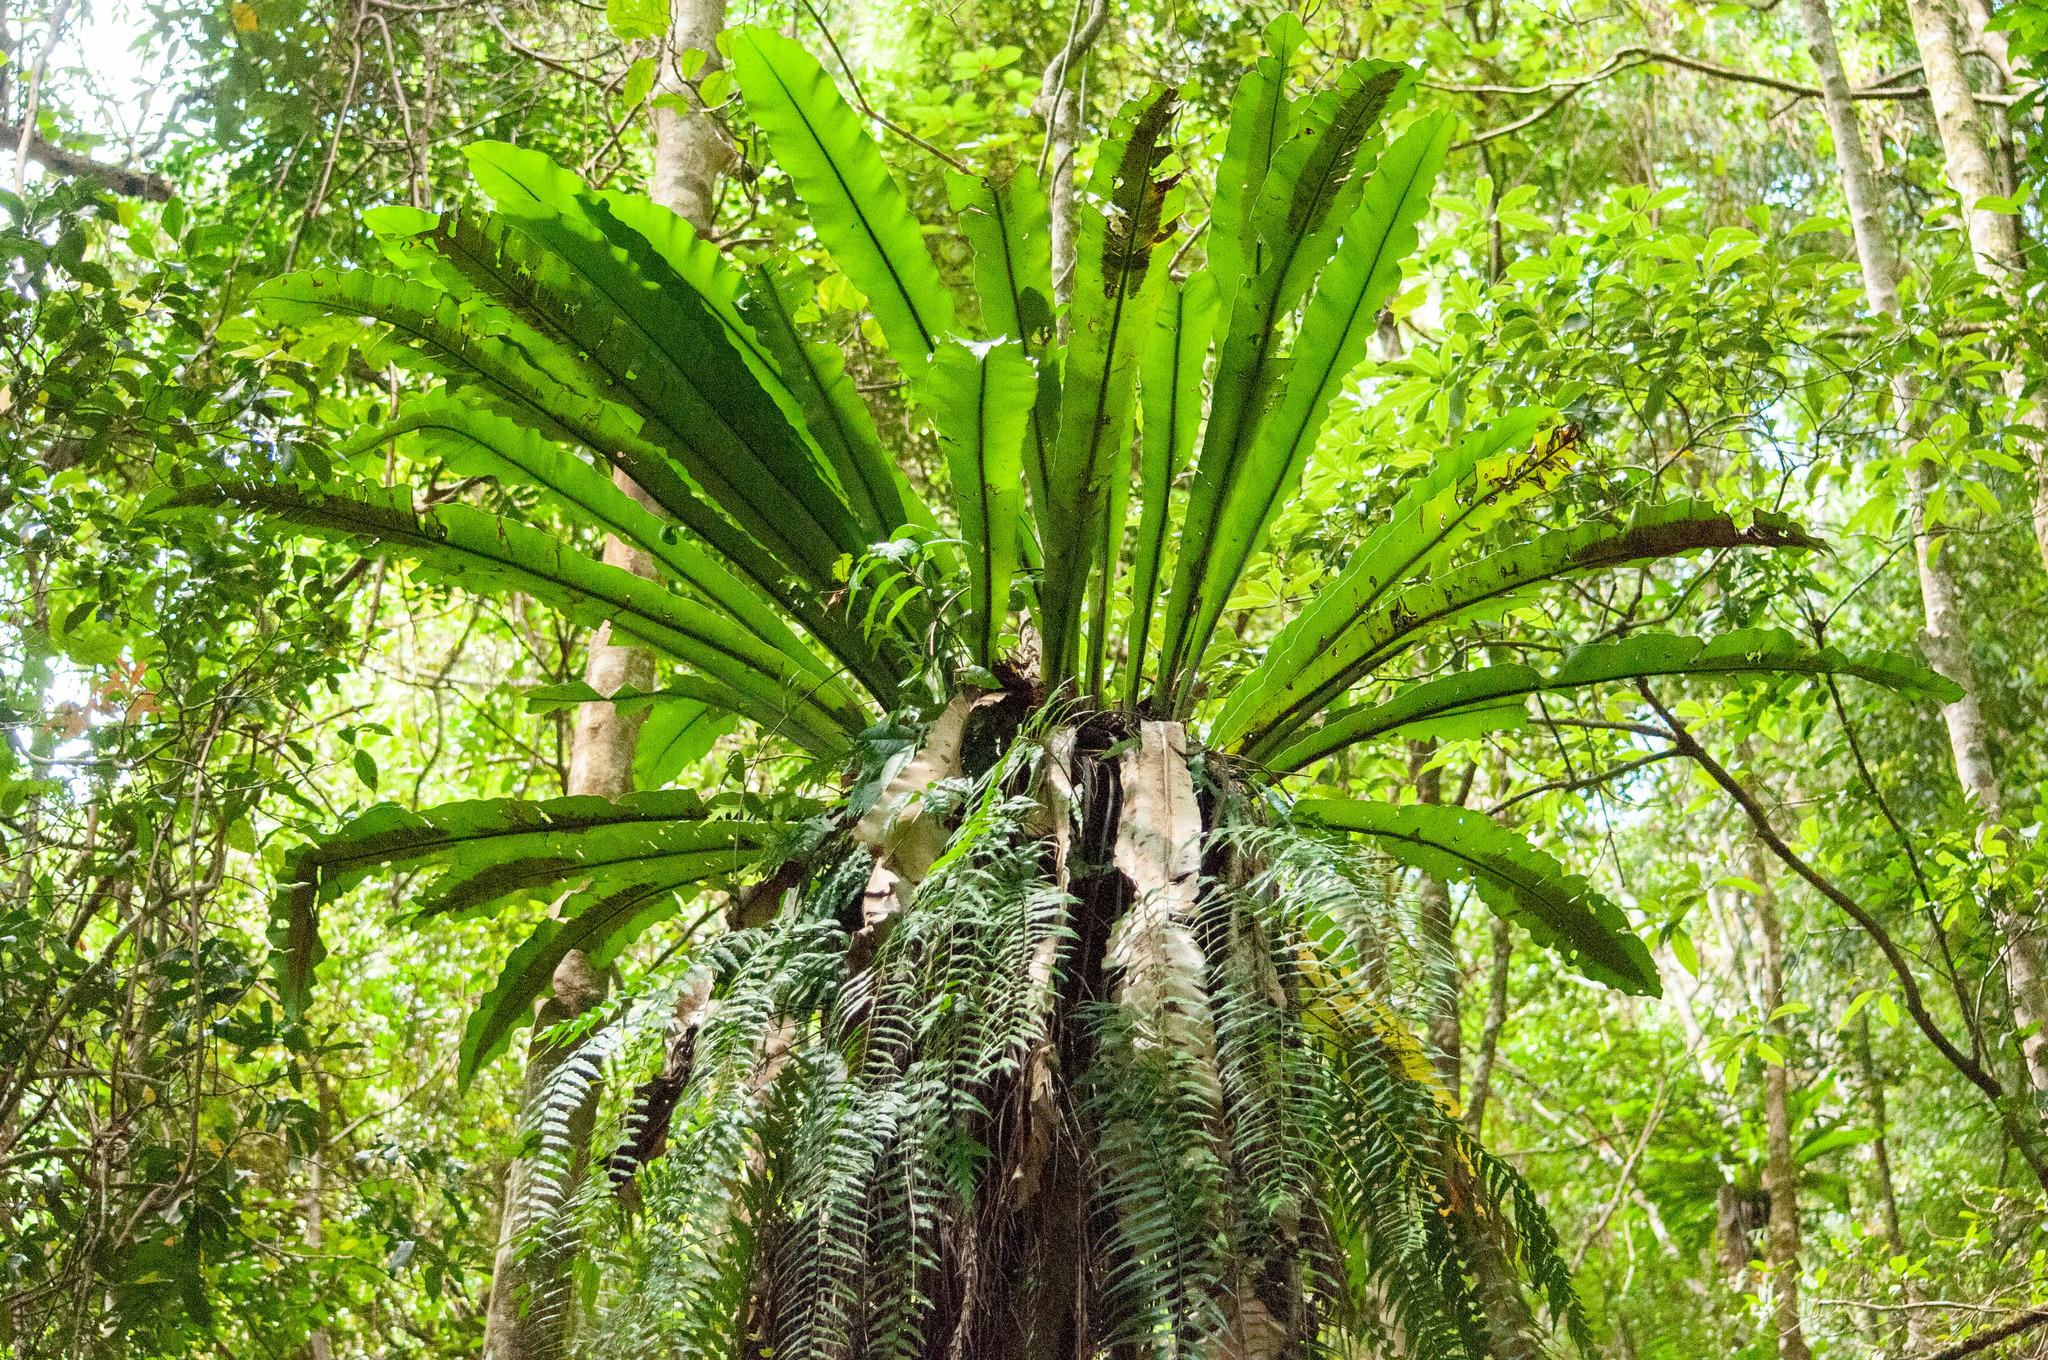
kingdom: Plantae
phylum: Tracheophyta
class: Polypodiopsida
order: Polypodiales
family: Aspleniaceae
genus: Asplenium
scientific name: Asplenium australasicum
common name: Bird's-nest fern
